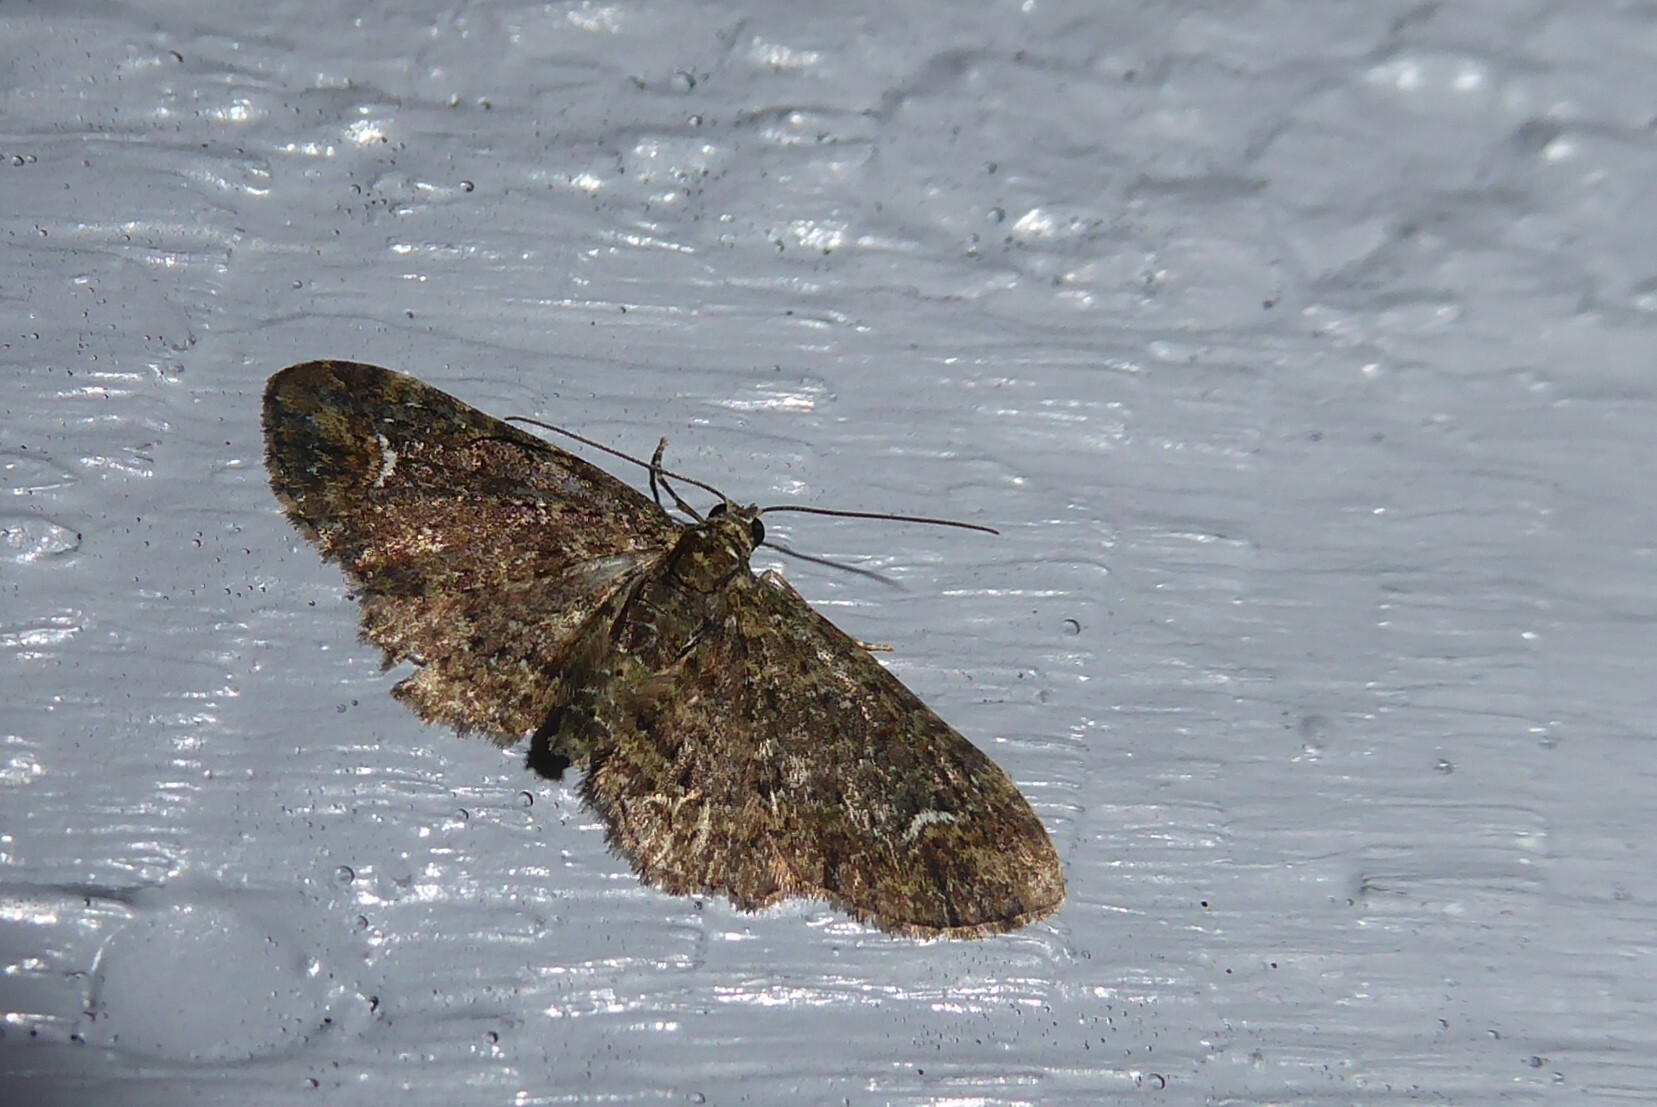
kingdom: Animalia
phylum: Arthropoda
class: Insecta
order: Lepidoptera
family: Geometridae
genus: Pasiphilodes
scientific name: Pasiphilodes testulata
